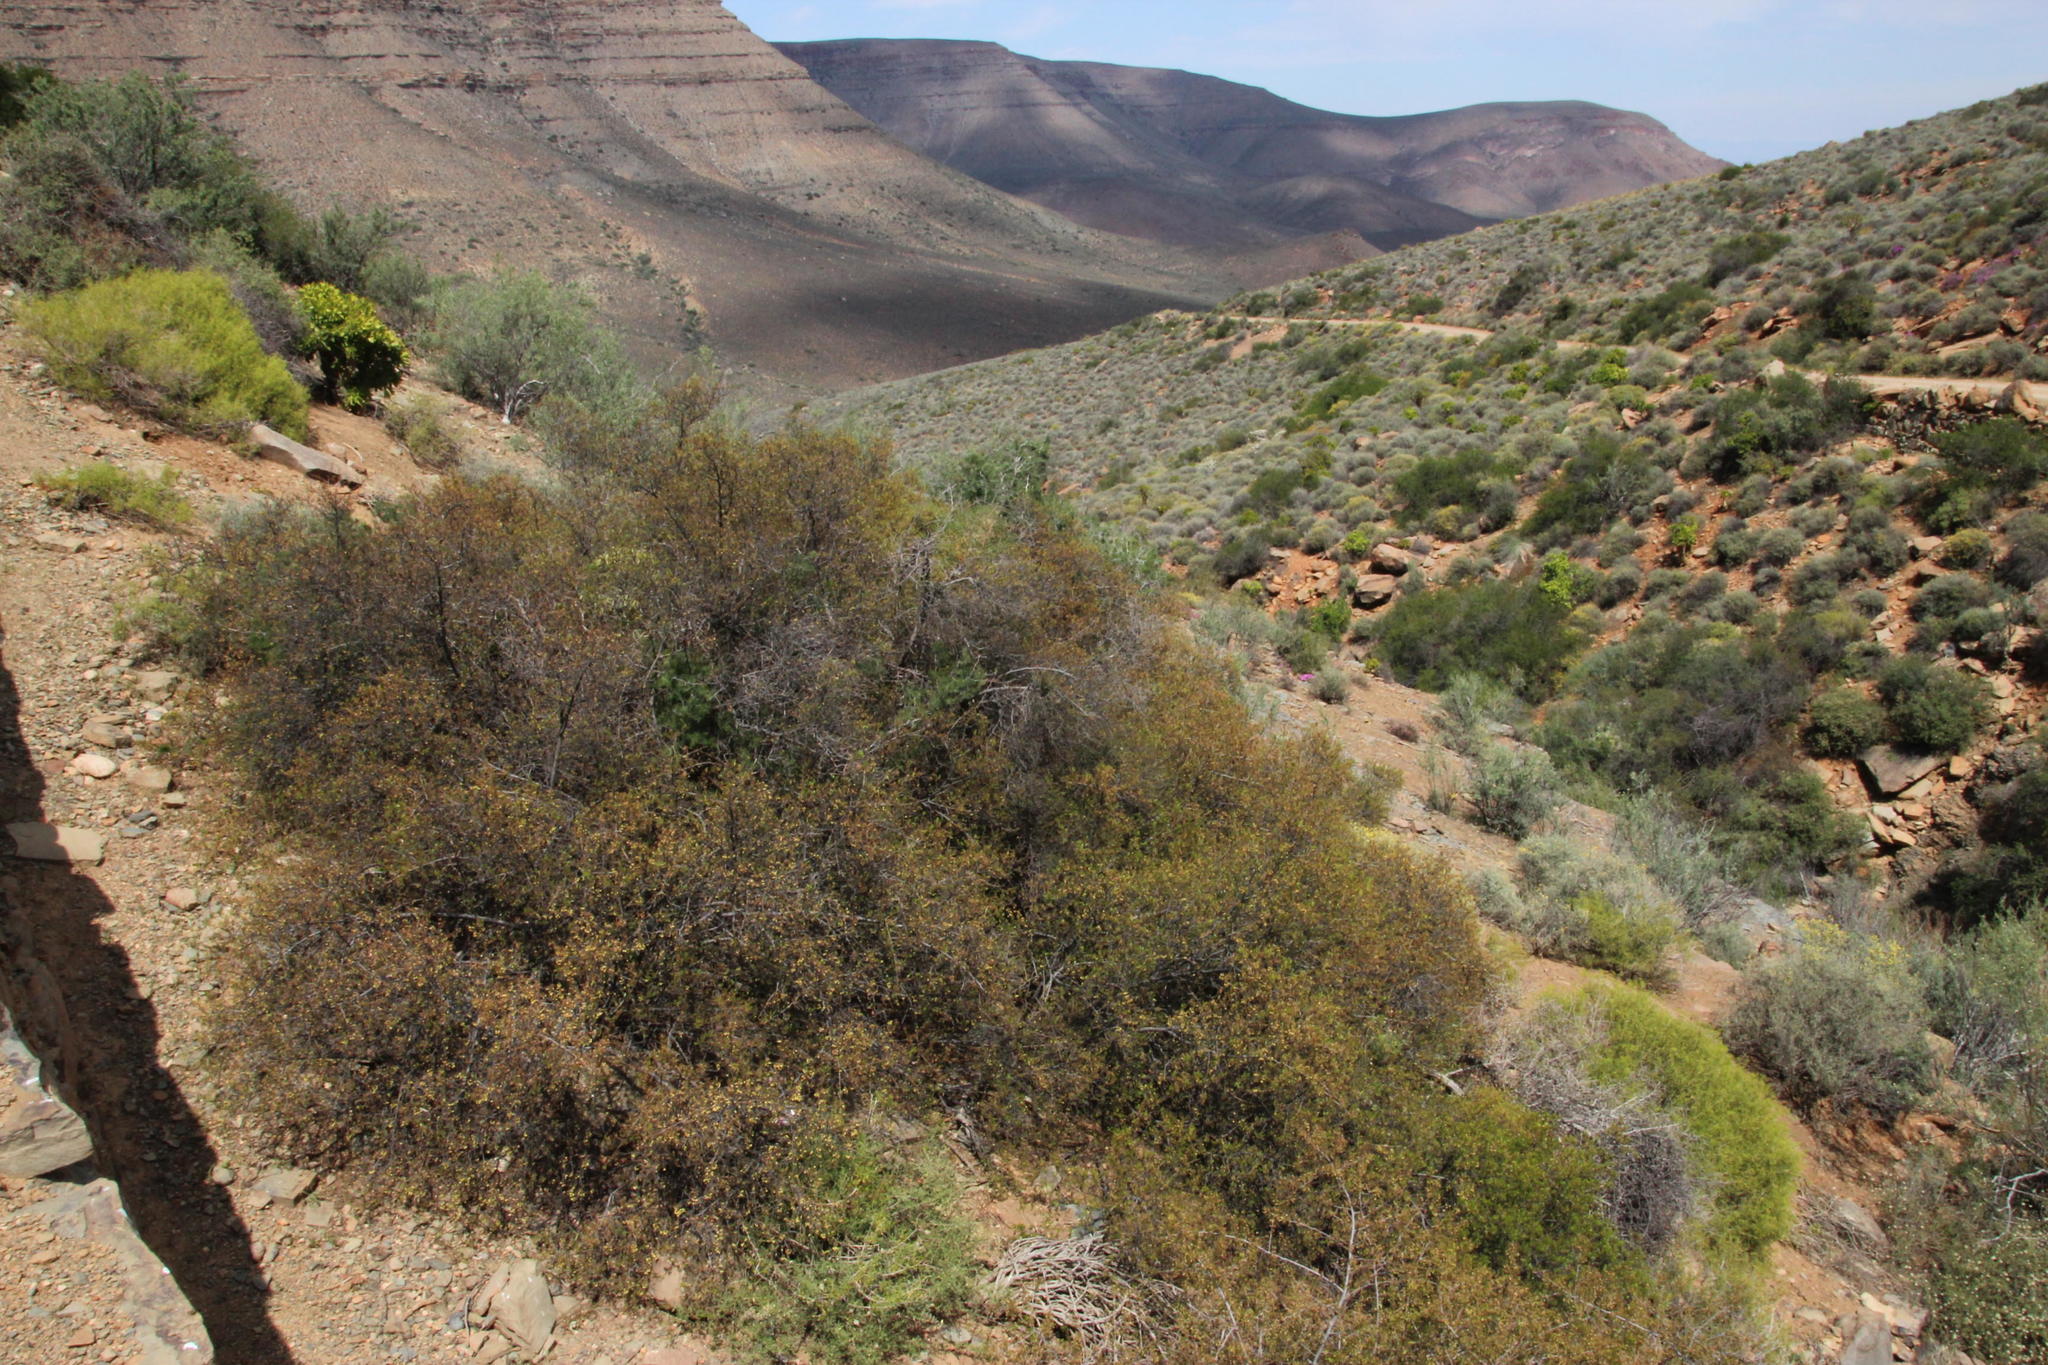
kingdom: Plantae
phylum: Tracheophyta
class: Magnoliopsida
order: Sapindales
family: Anacardiaceae
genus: Searsia
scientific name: Searsia burchellii
